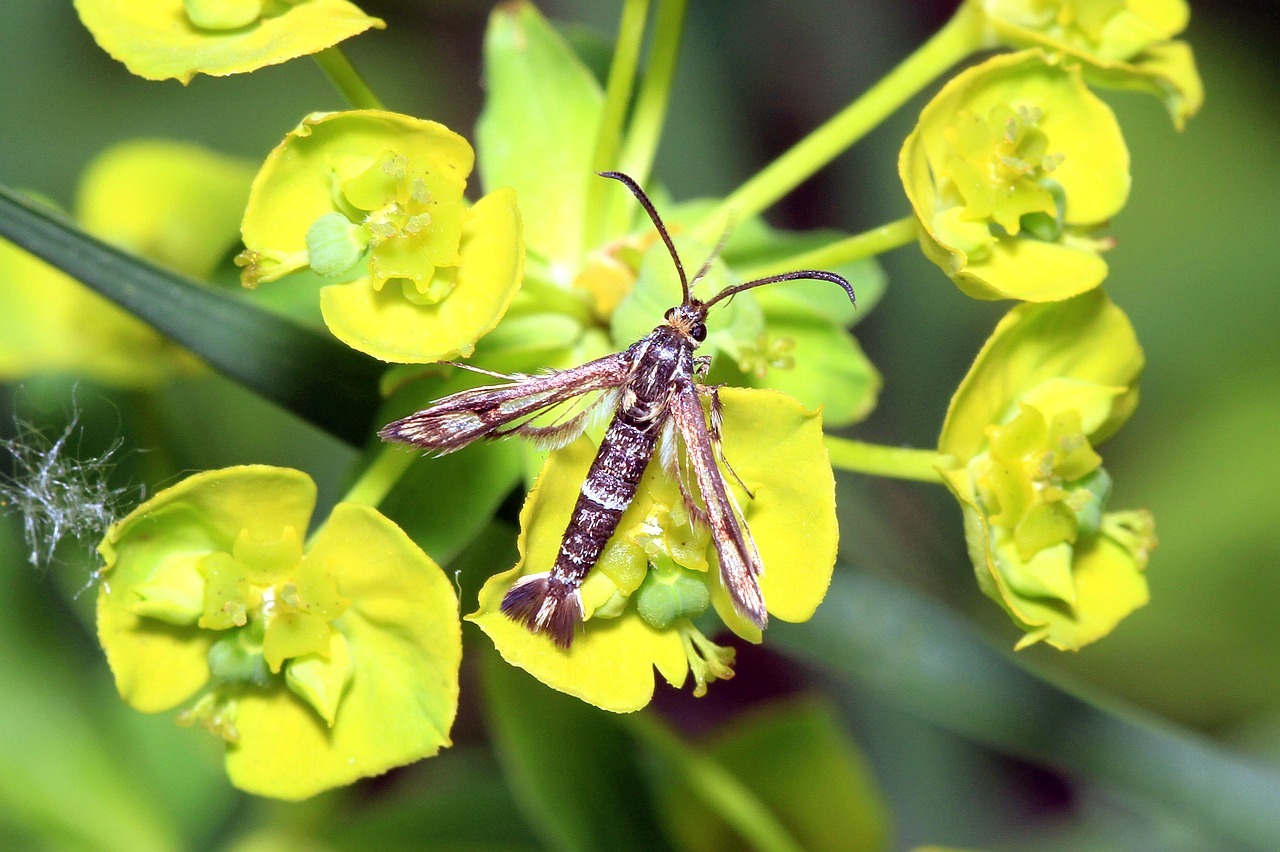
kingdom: Animalia
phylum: Arthropoda
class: Insecta
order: Lepidoptera
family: Sesiidae
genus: Chamaesphecia
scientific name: Chamaesphecia tenthrediniformis
